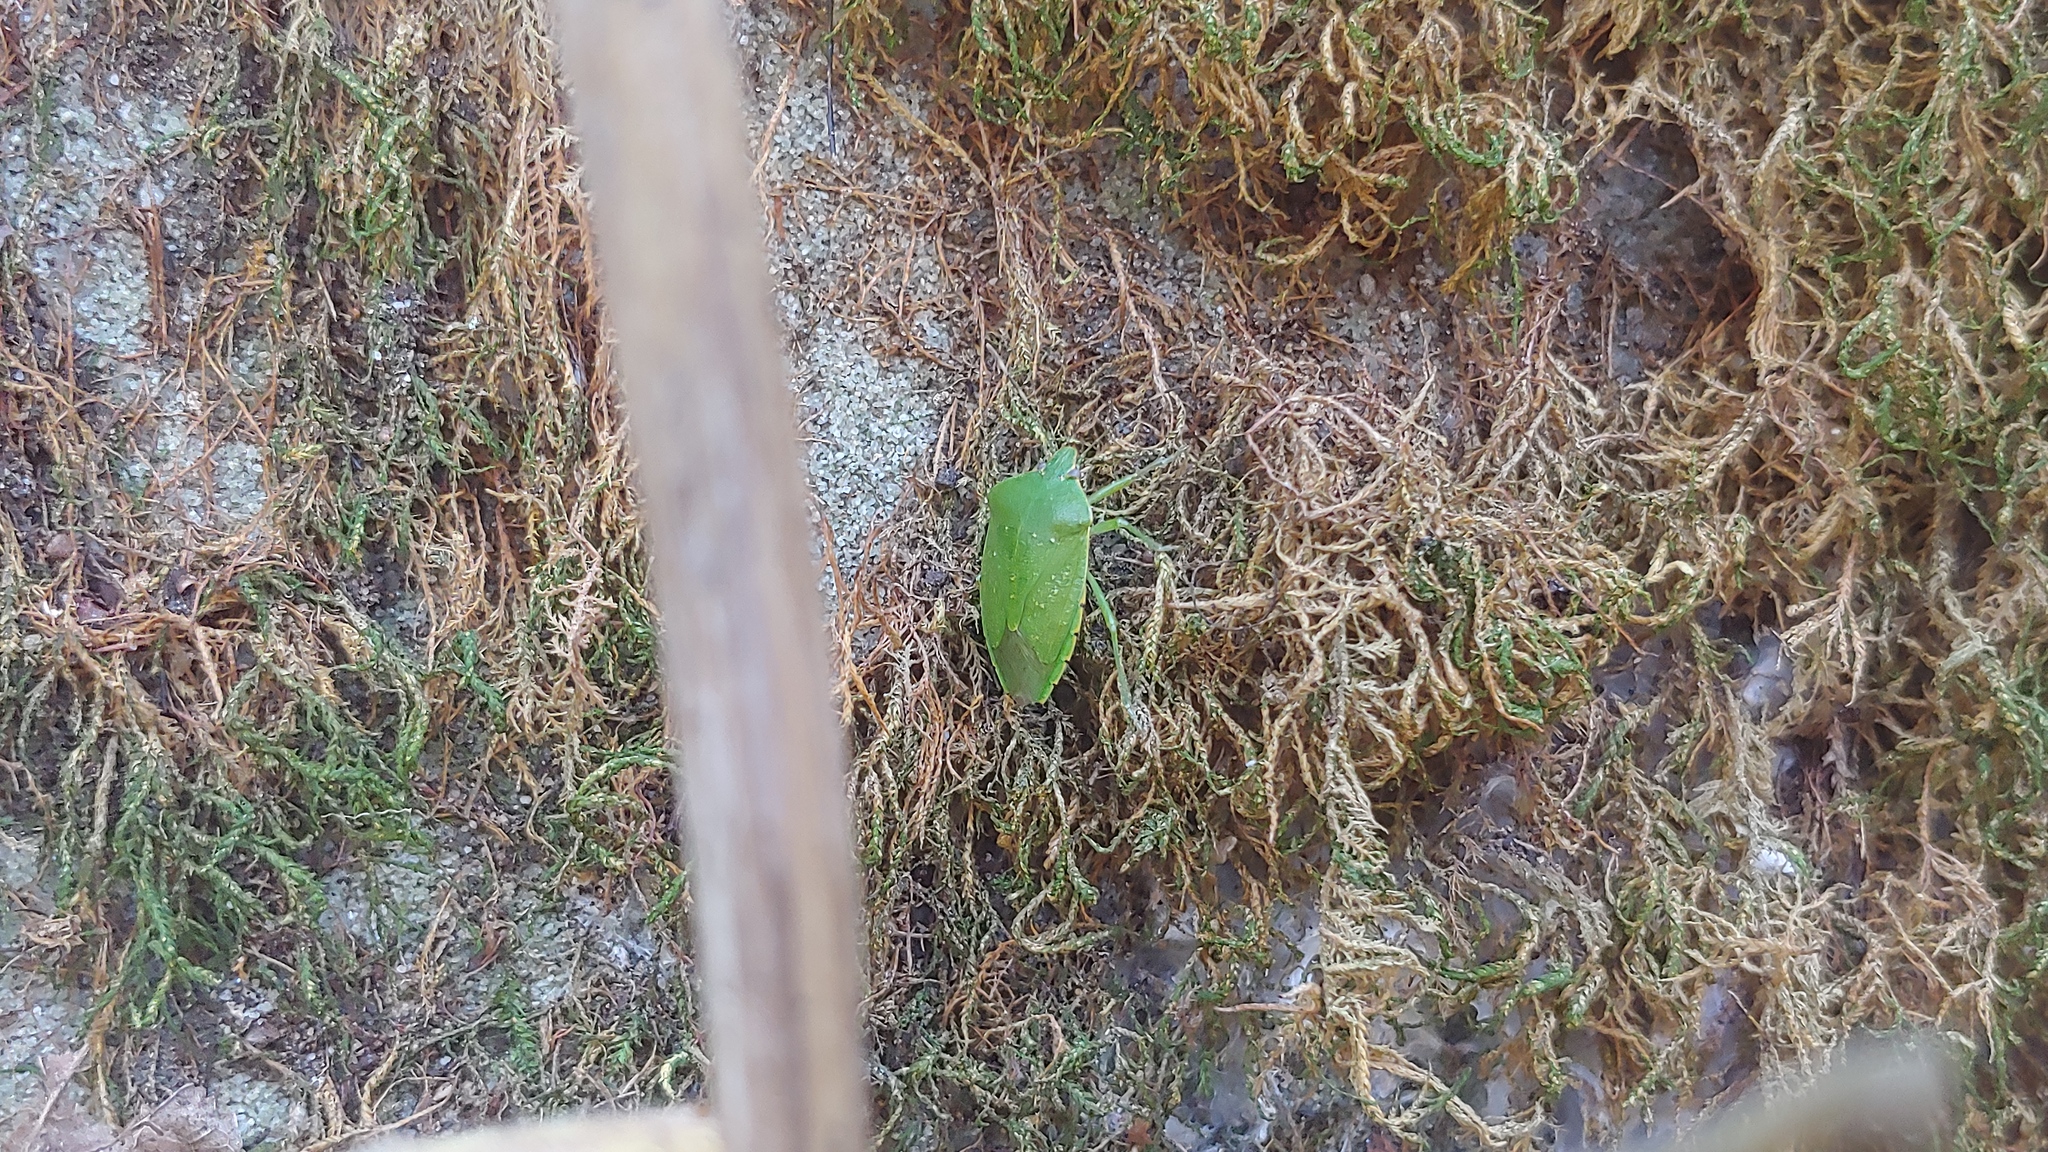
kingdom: Animalia
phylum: Arthropoda
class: Insecta
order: Hemiptera
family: Pentatomidae
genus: Chinavia
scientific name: Chinavia hilaris
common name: Green stink bug
